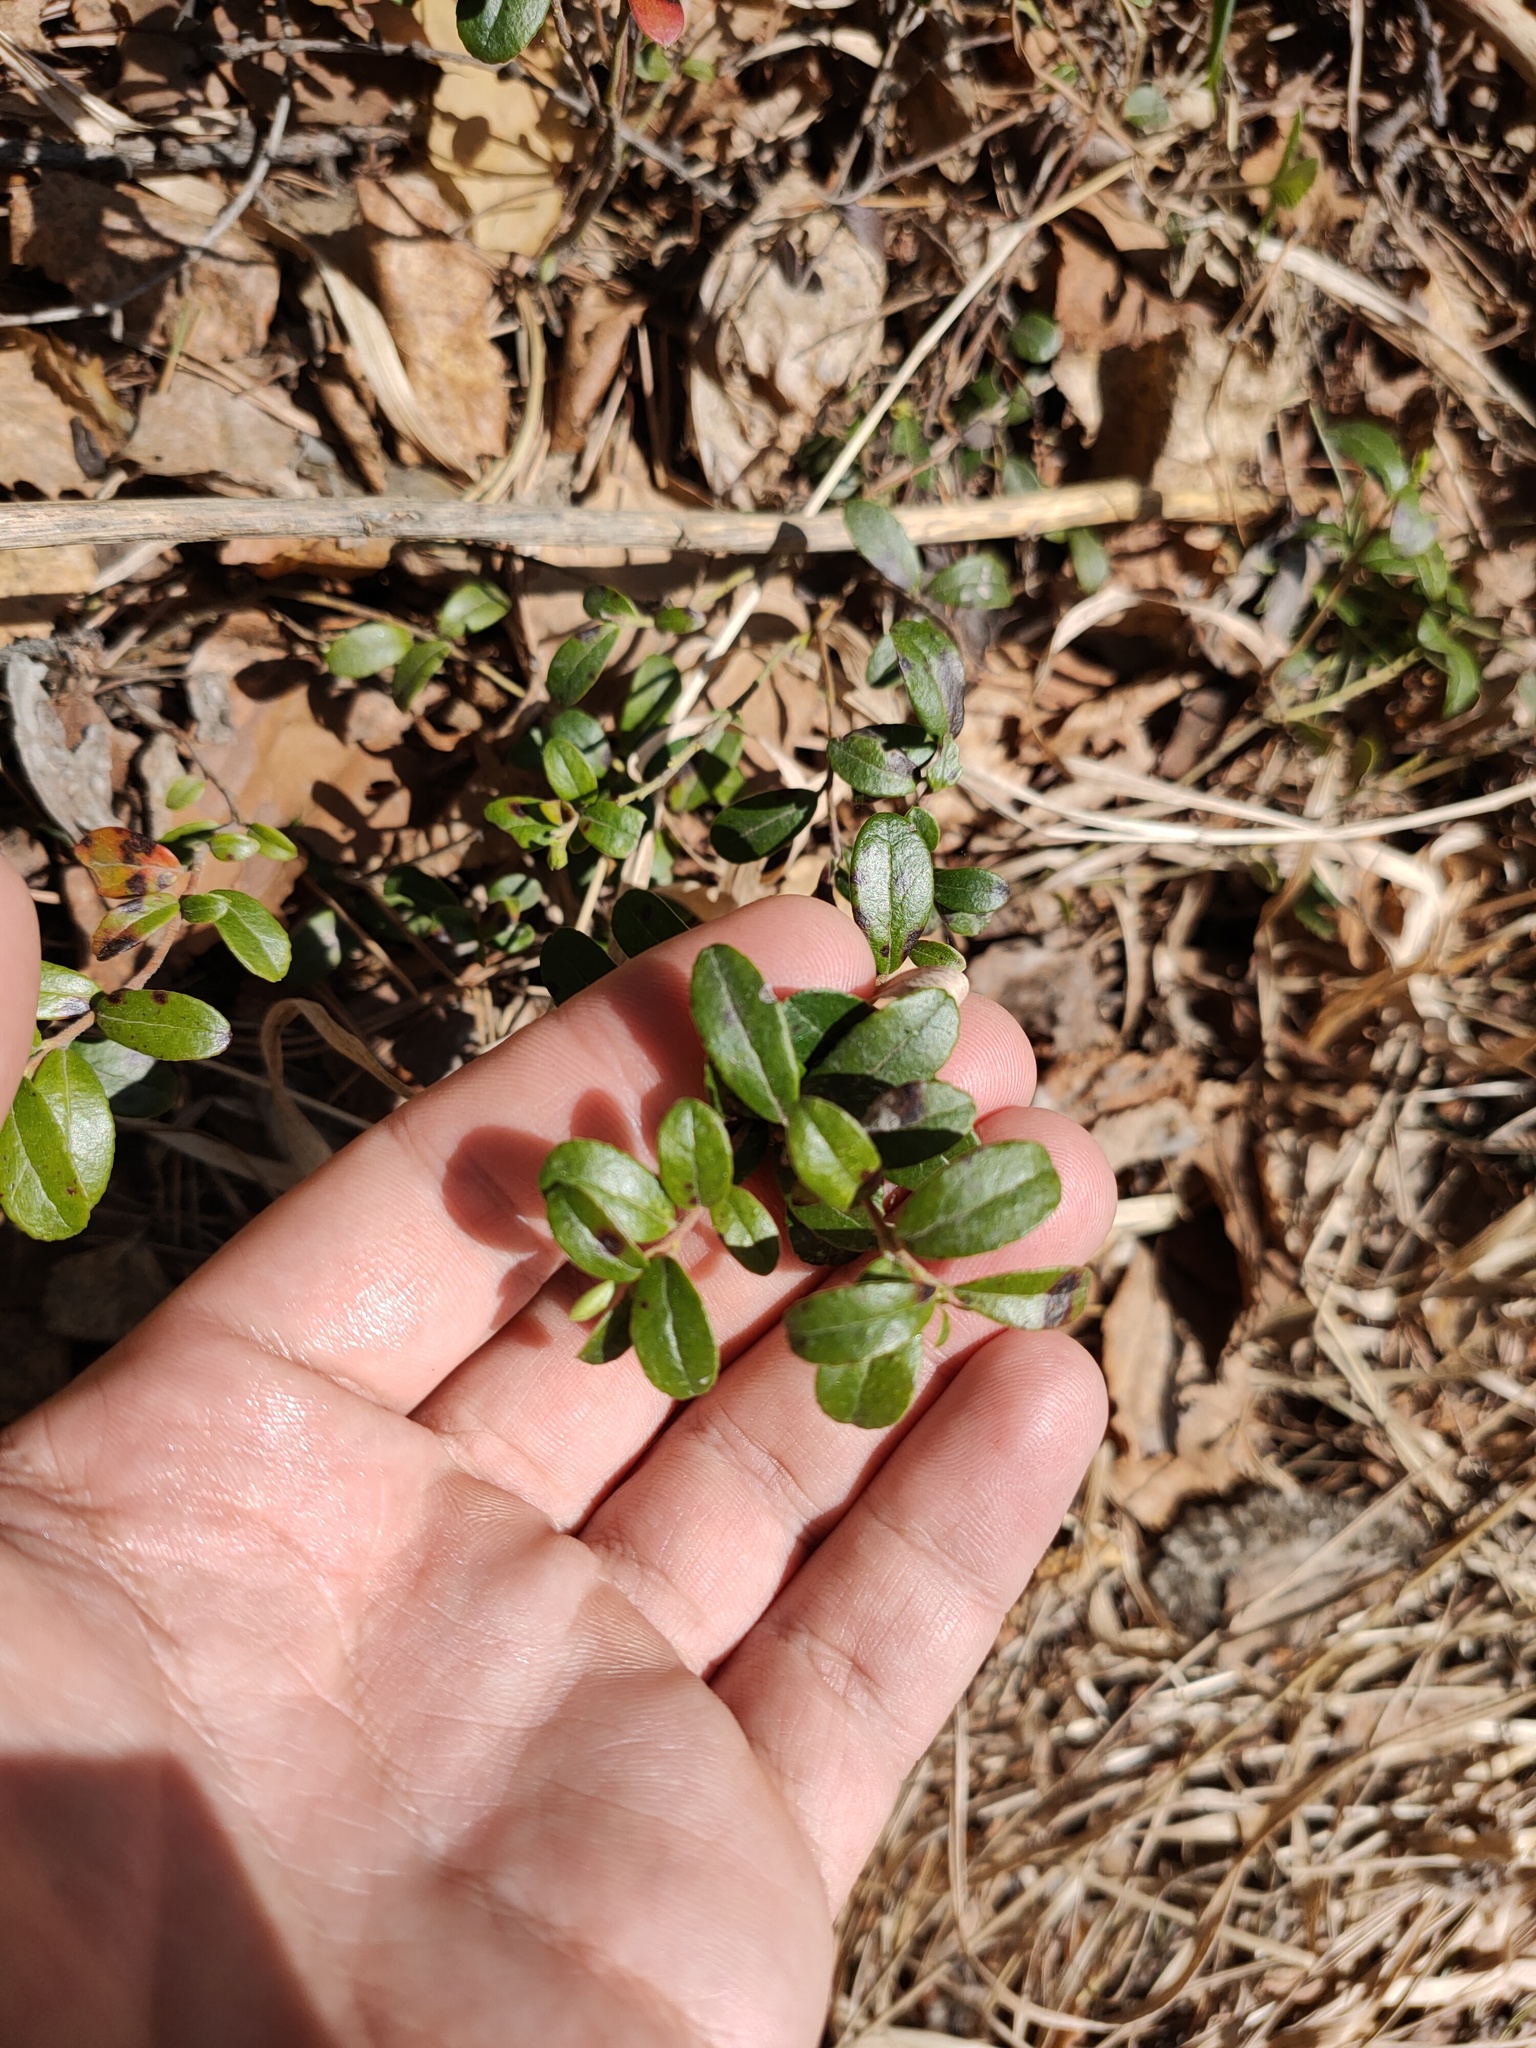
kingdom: Plantae
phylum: Tracheophyta
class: Magnoliopsida
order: Ericales
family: Ericaceae
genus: Vaccinium
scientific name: Vaccinium vitis-idaea
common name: Cowberry
